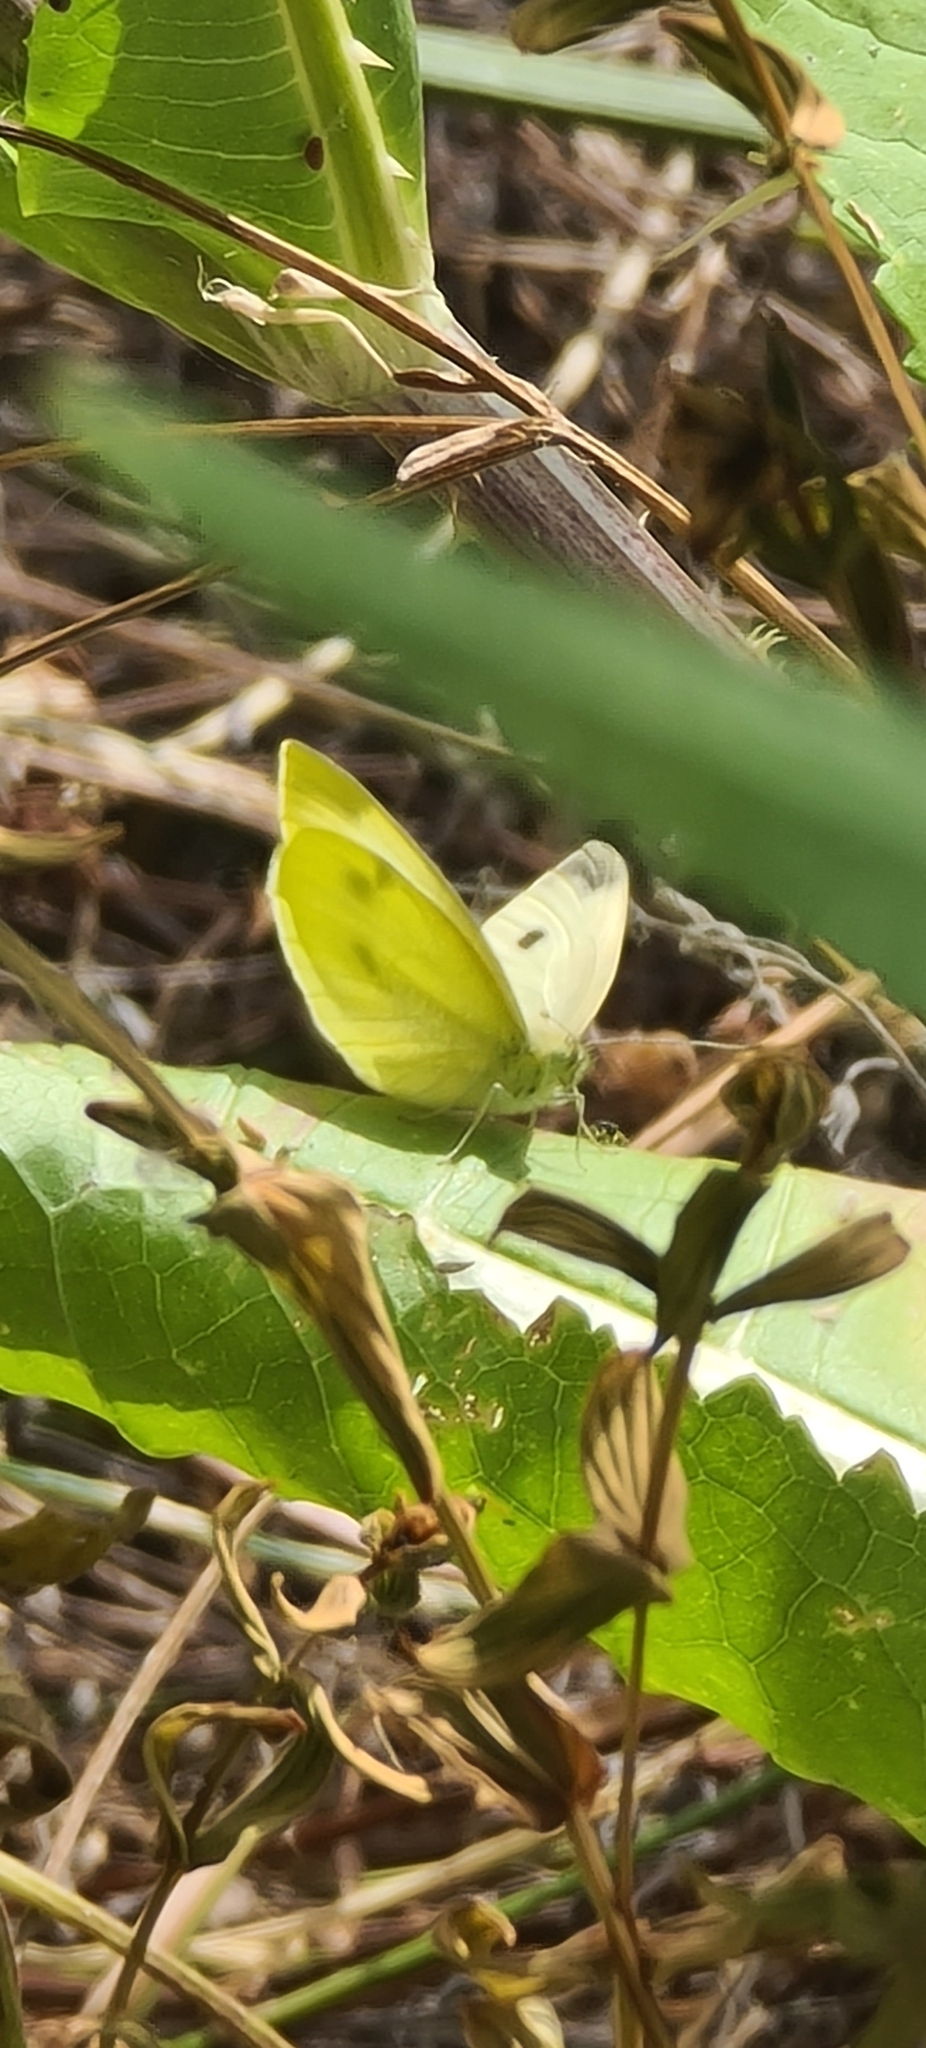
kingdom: Animalia
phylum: Arthropoda
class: Insecta
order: Lepidoptera
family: Pieridae
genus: Pieris
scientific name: Pieris rapae
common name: Small white
